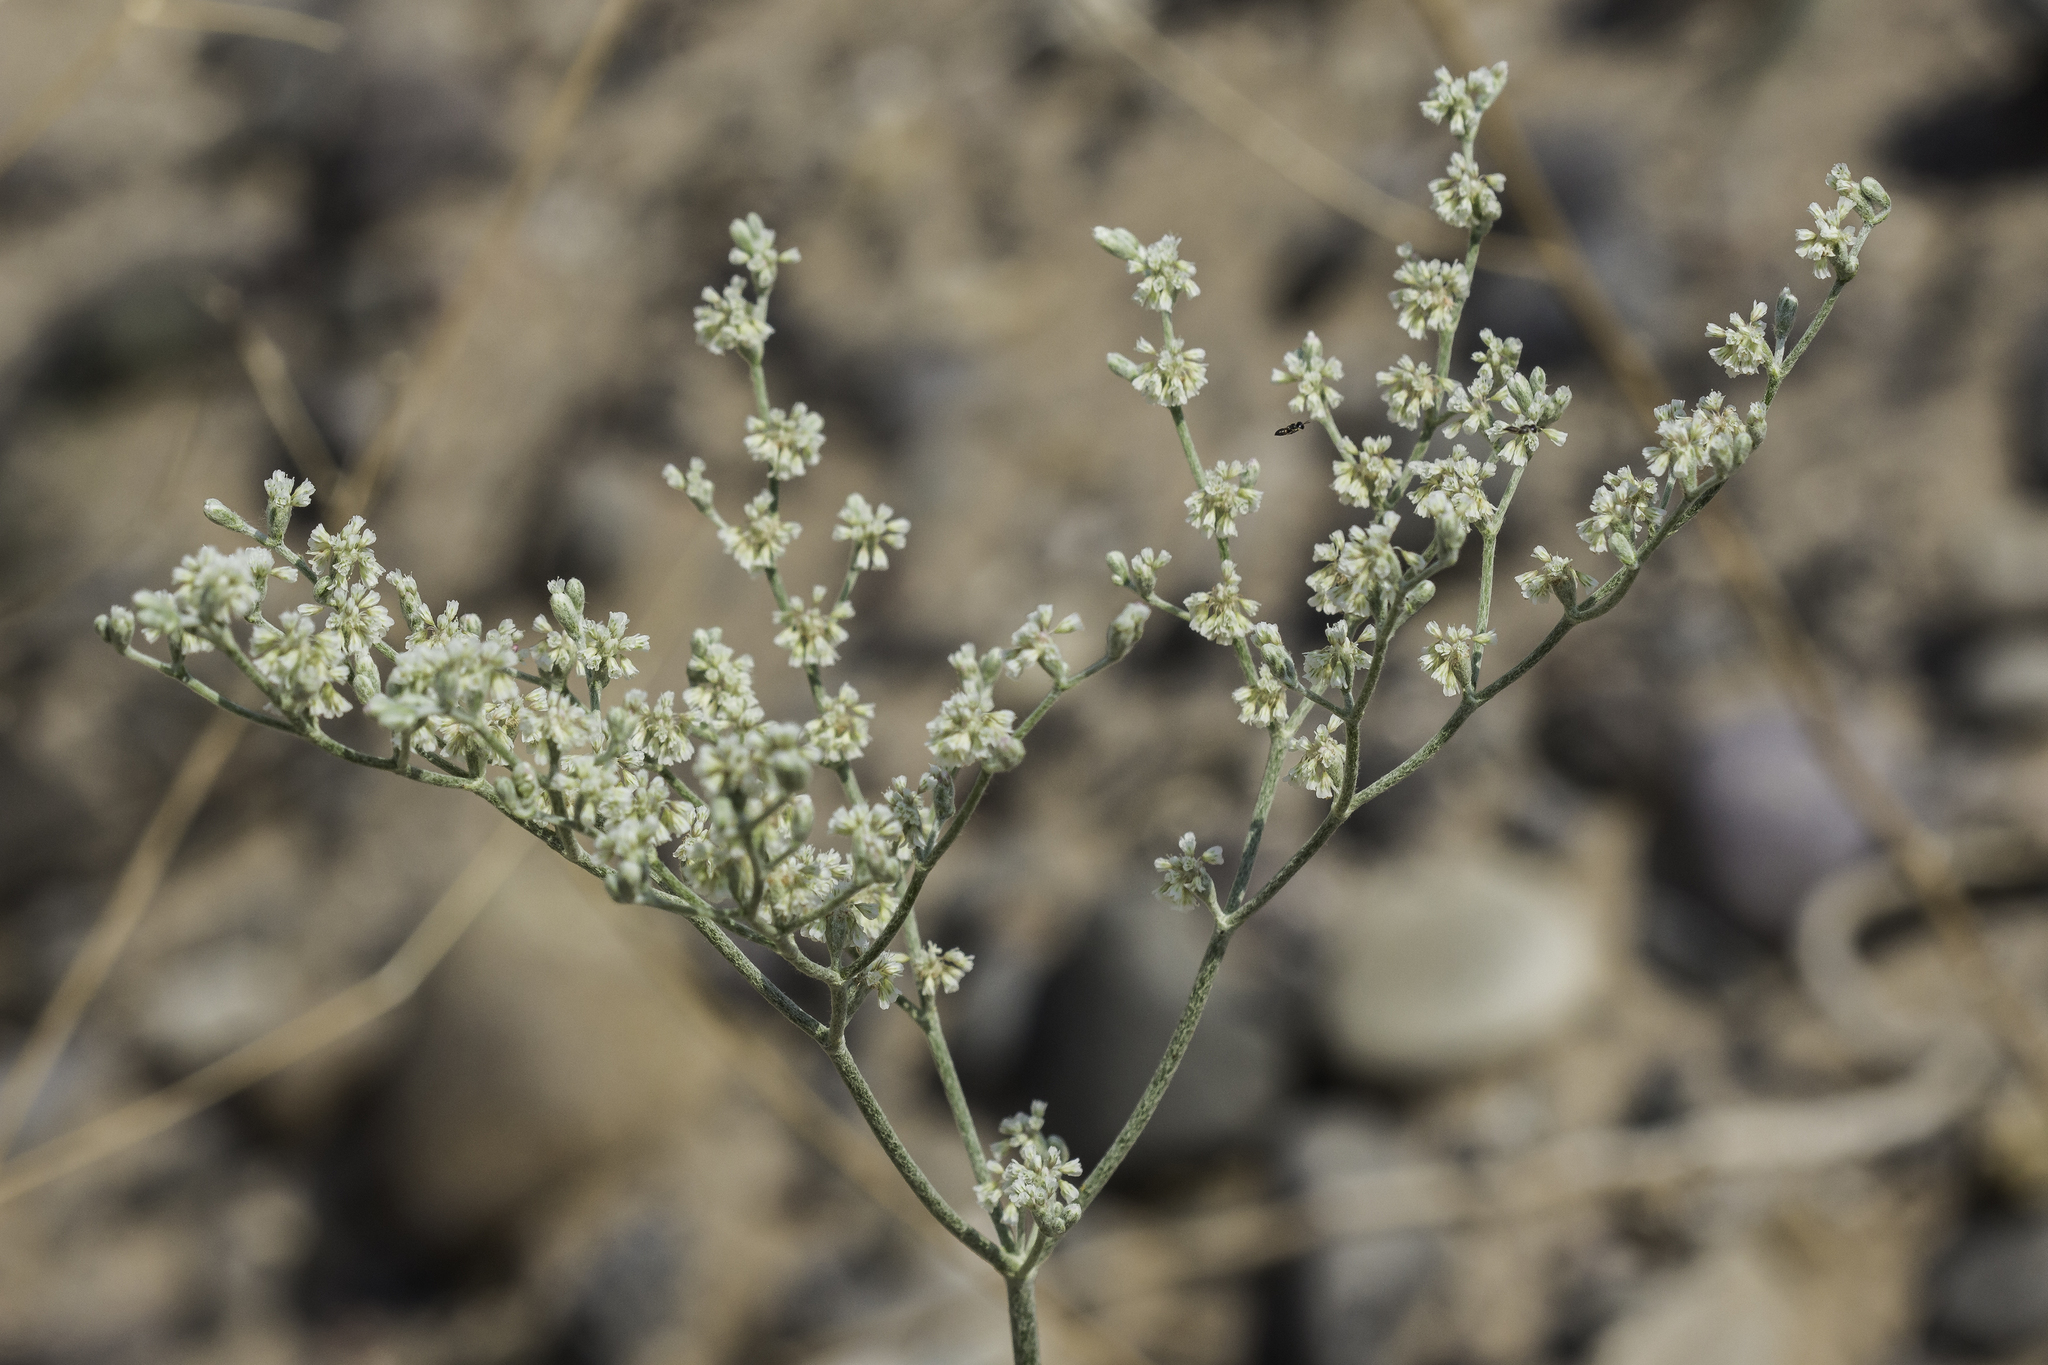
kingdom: Plantae
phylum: Tracheophyta
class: Magnoliopsida
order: Caryophyllales
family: Polygonaceae
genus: Eriogonum
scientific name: Eriogonum annuum
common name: Annual wild buckwheat
